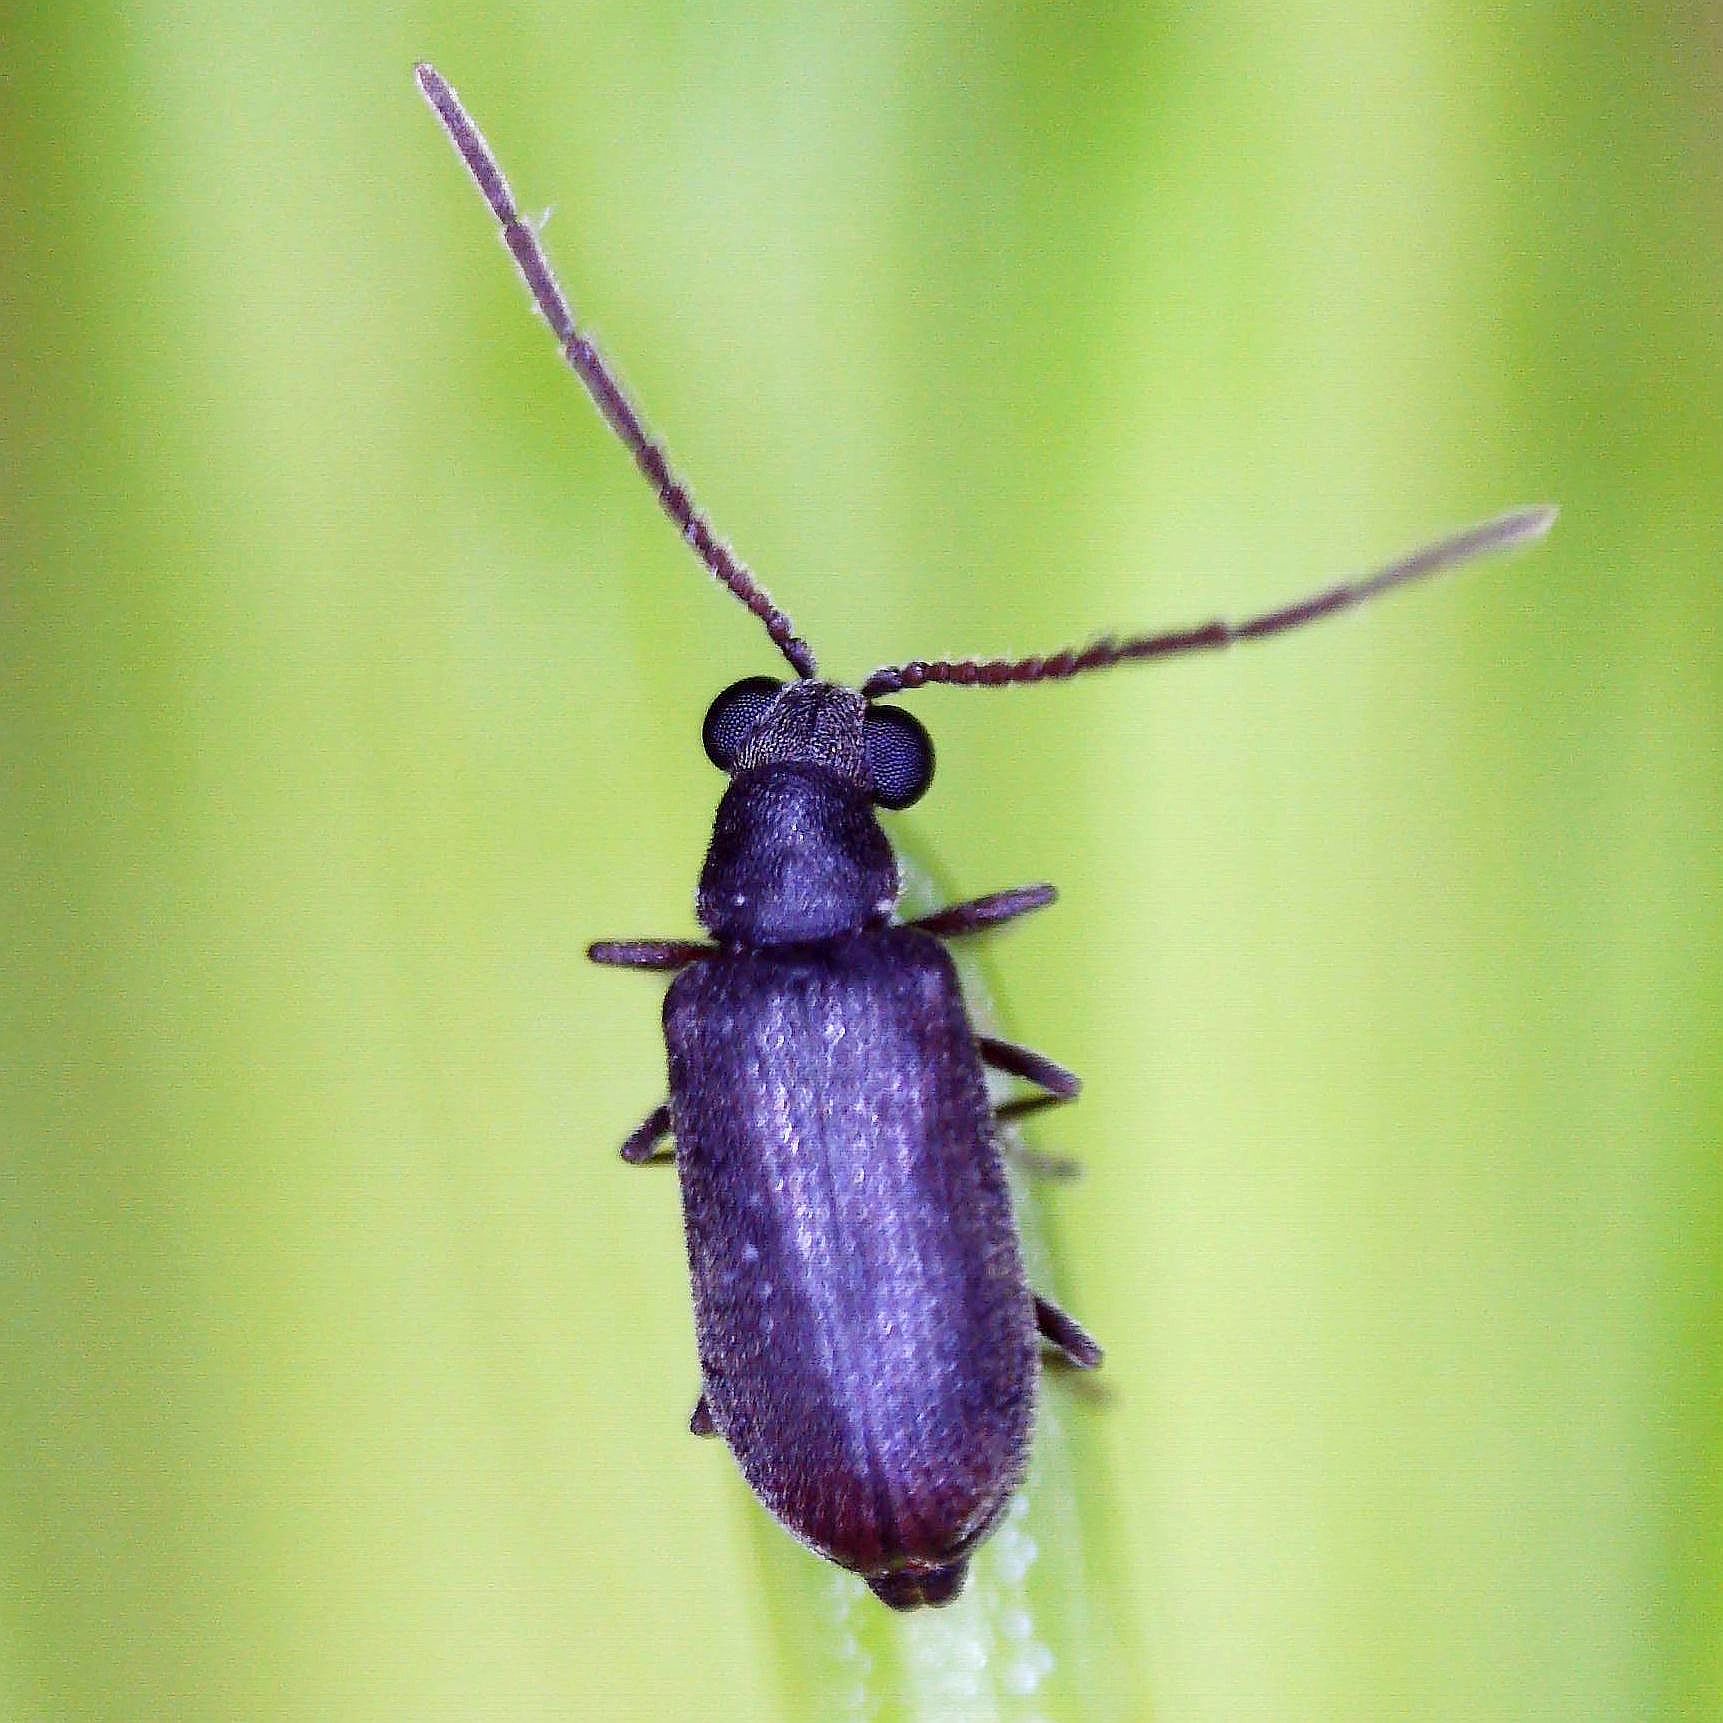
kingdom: Animalia
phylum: Arthropoda
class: Insecta
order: Coleoptera
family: Anobiidae
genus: Dryophilus
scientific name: Dryophilus pusillus
